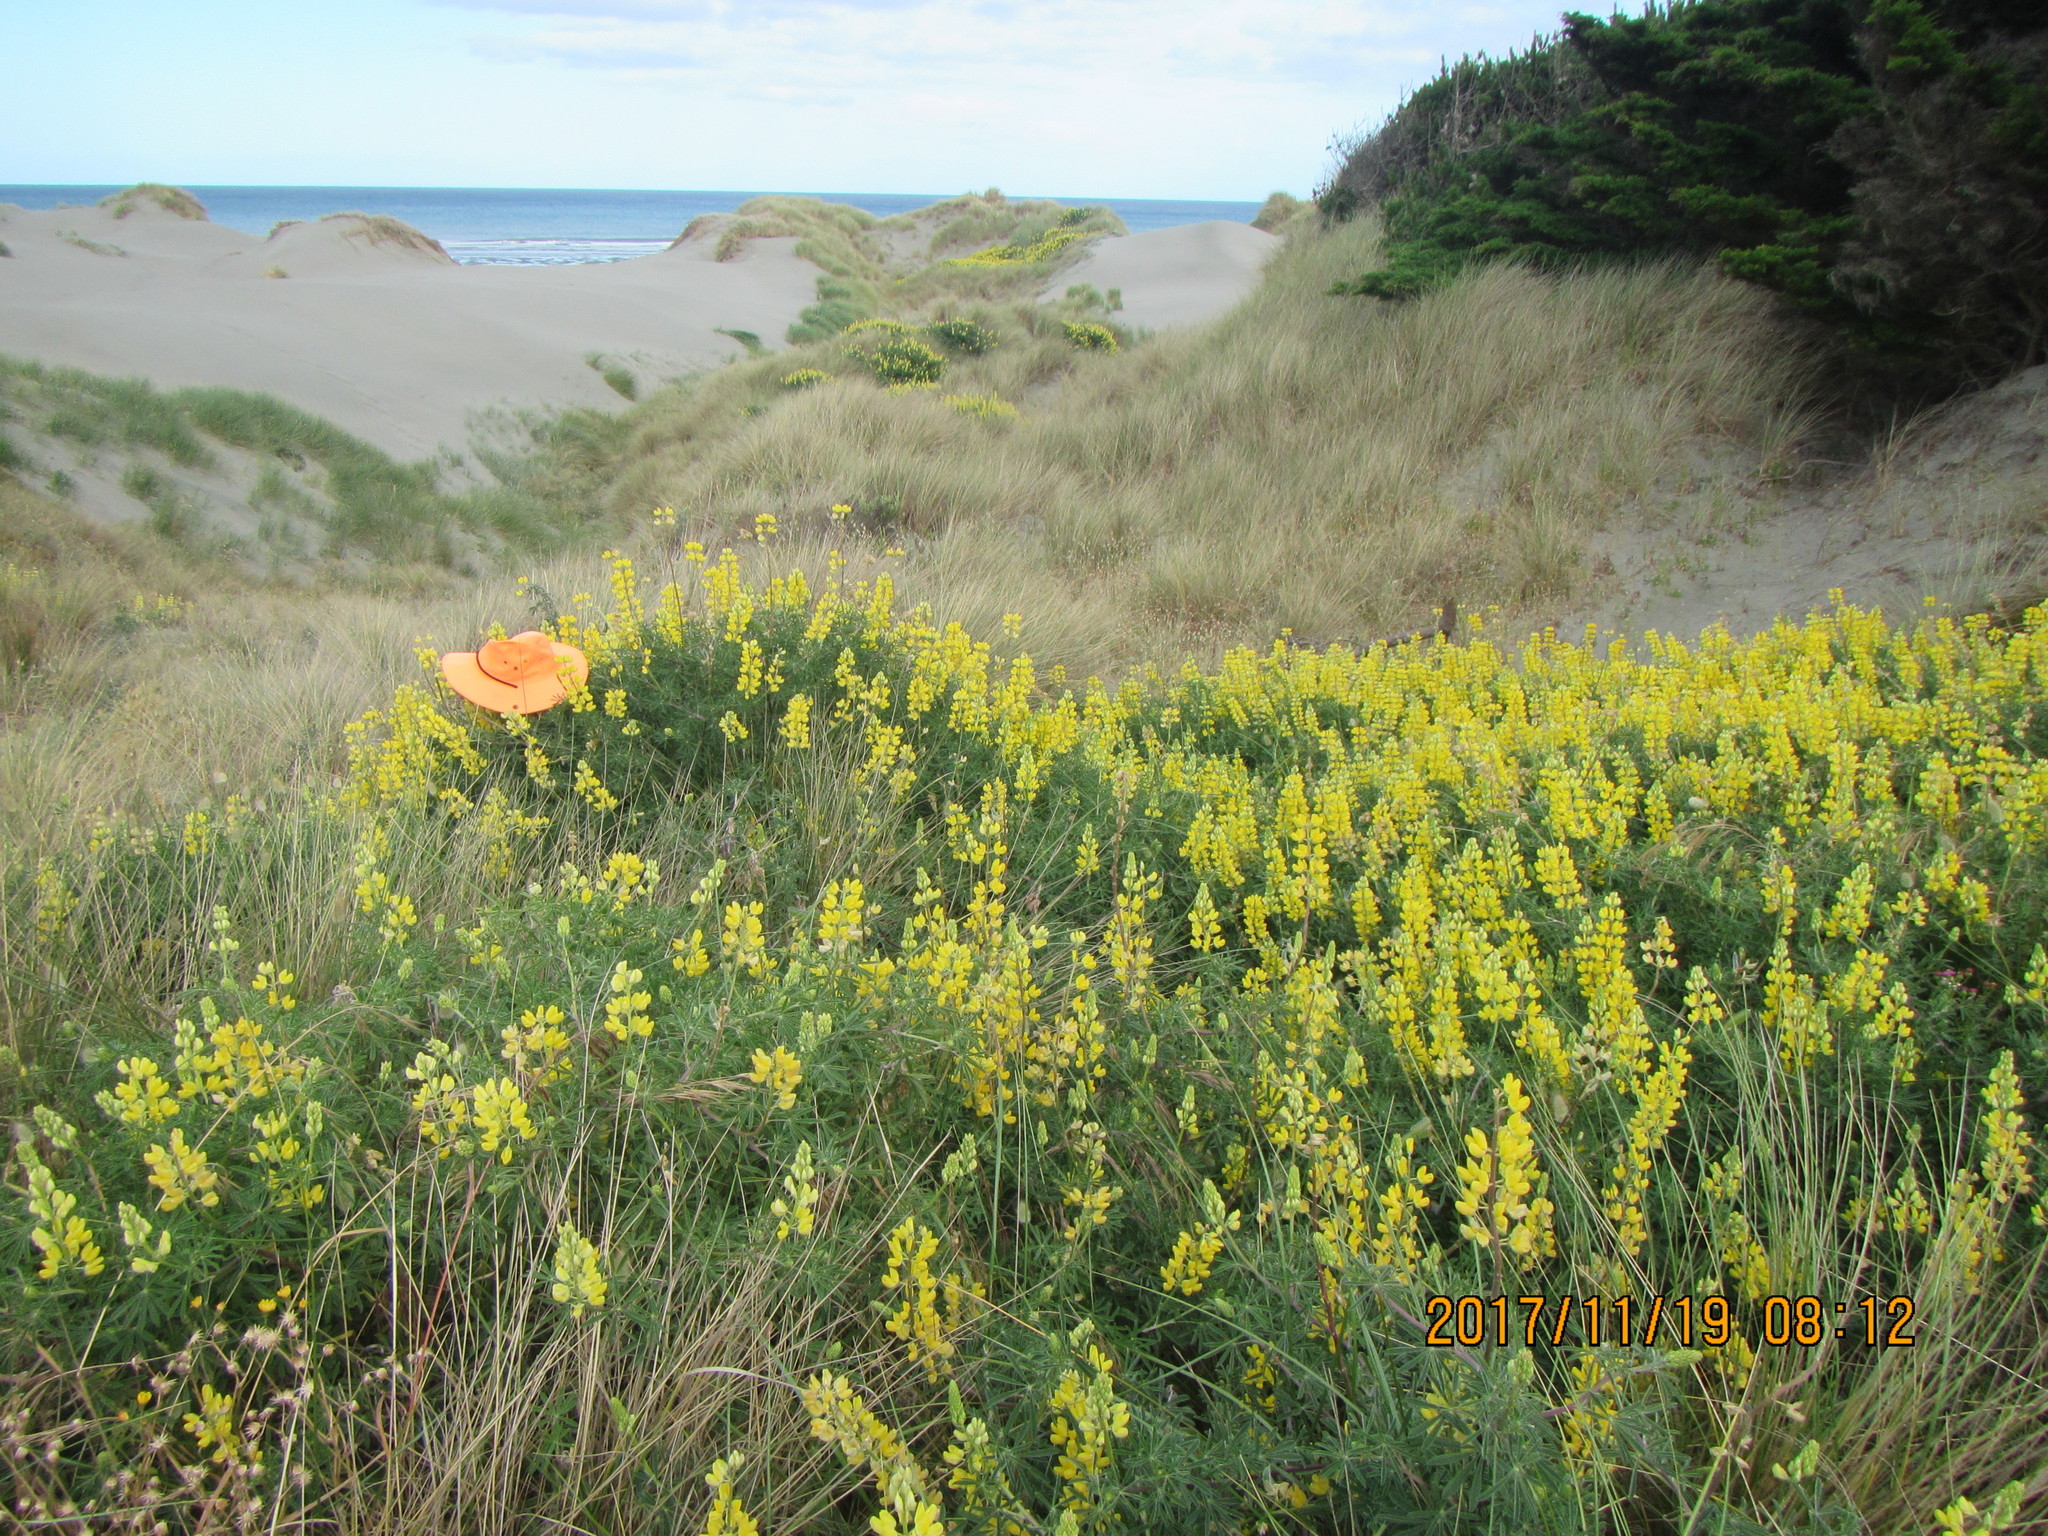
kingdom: Plantae
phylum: Tracheophyta
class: Magnoliopsida
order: Fabales
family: Fabaceae
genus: Lupinus
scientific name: Lupinus arboreus
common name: Yellow bush lupine
